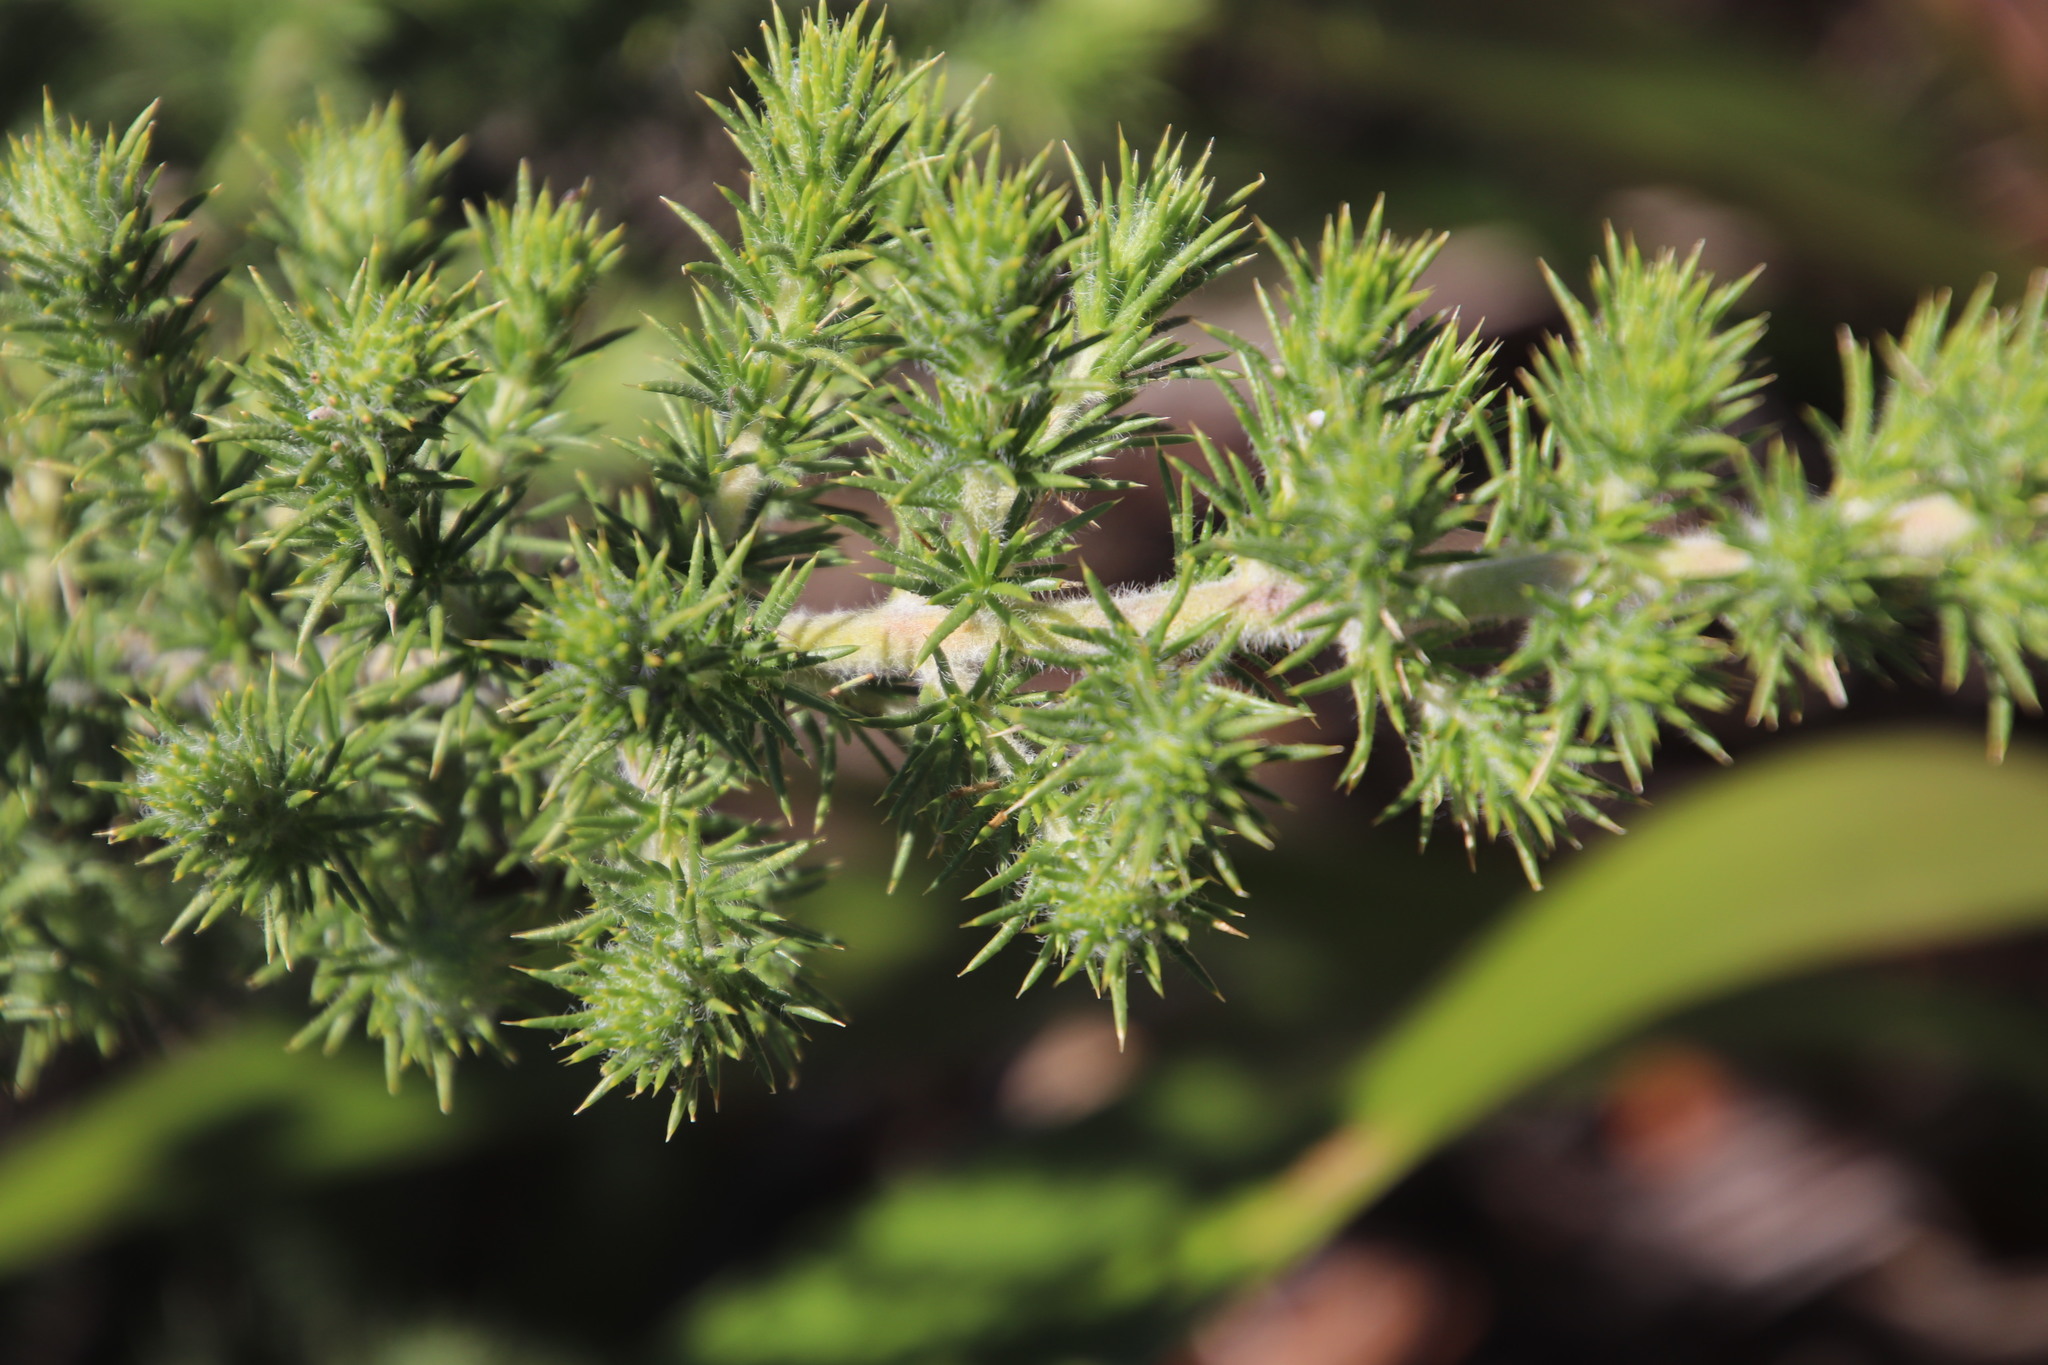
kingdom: Plantae
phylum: Tracheophyta
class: Magnoliopsida
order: Fabales
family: Fabaceae
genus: Aspalathus
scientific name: Aspalathus chenopoda
